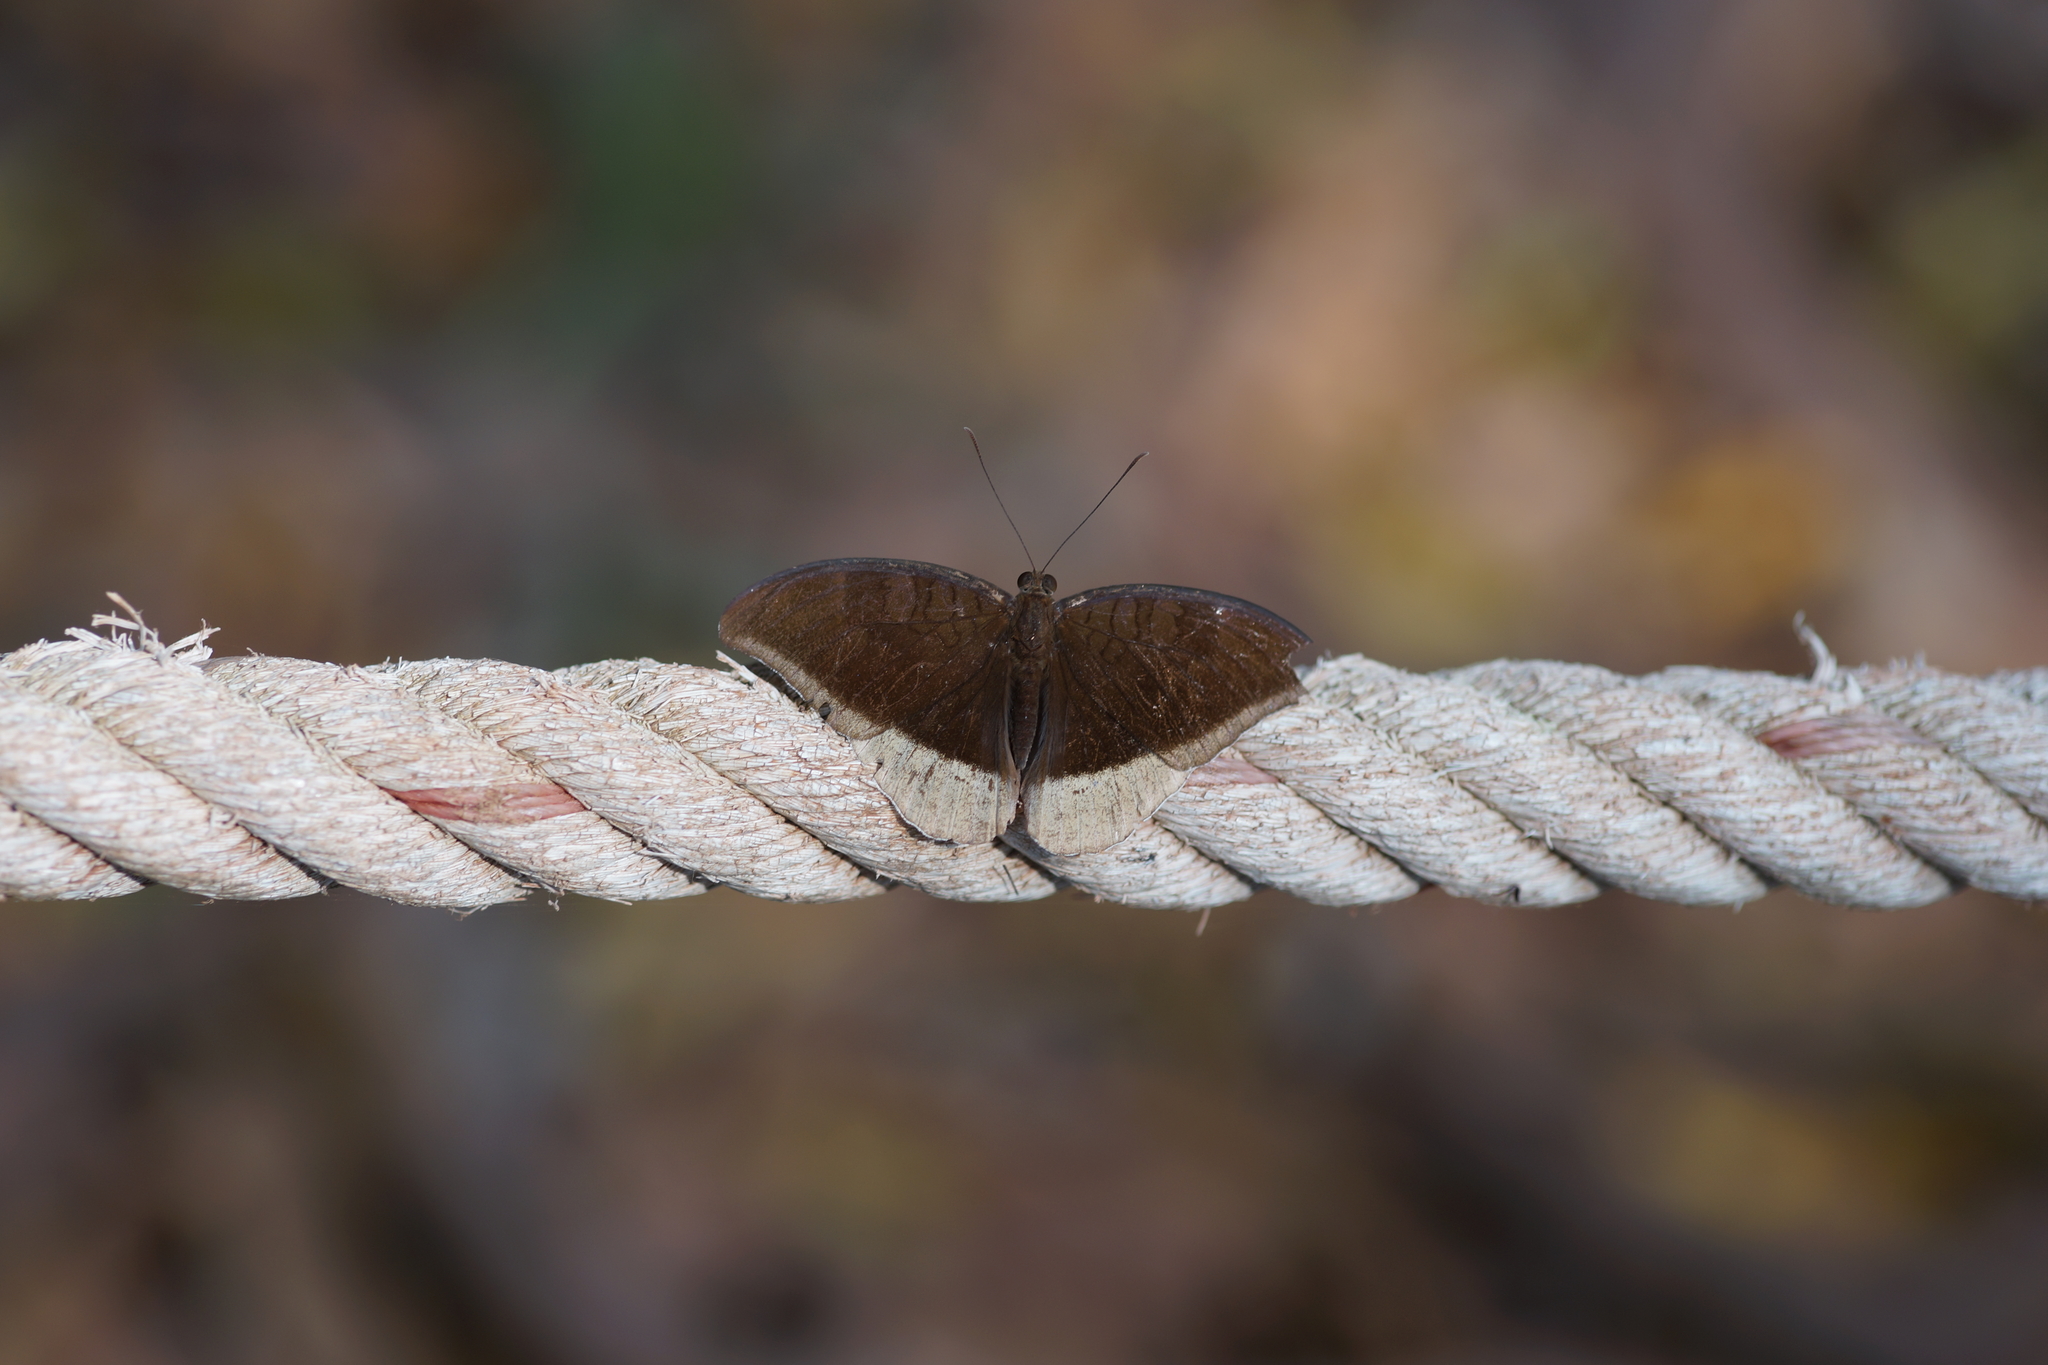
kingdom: Animalia
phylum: Arthropoda
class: Insecta
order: Lepidoptera
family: Nymphalidae
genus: Tanaecia
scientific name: Tanaecia lepidea
